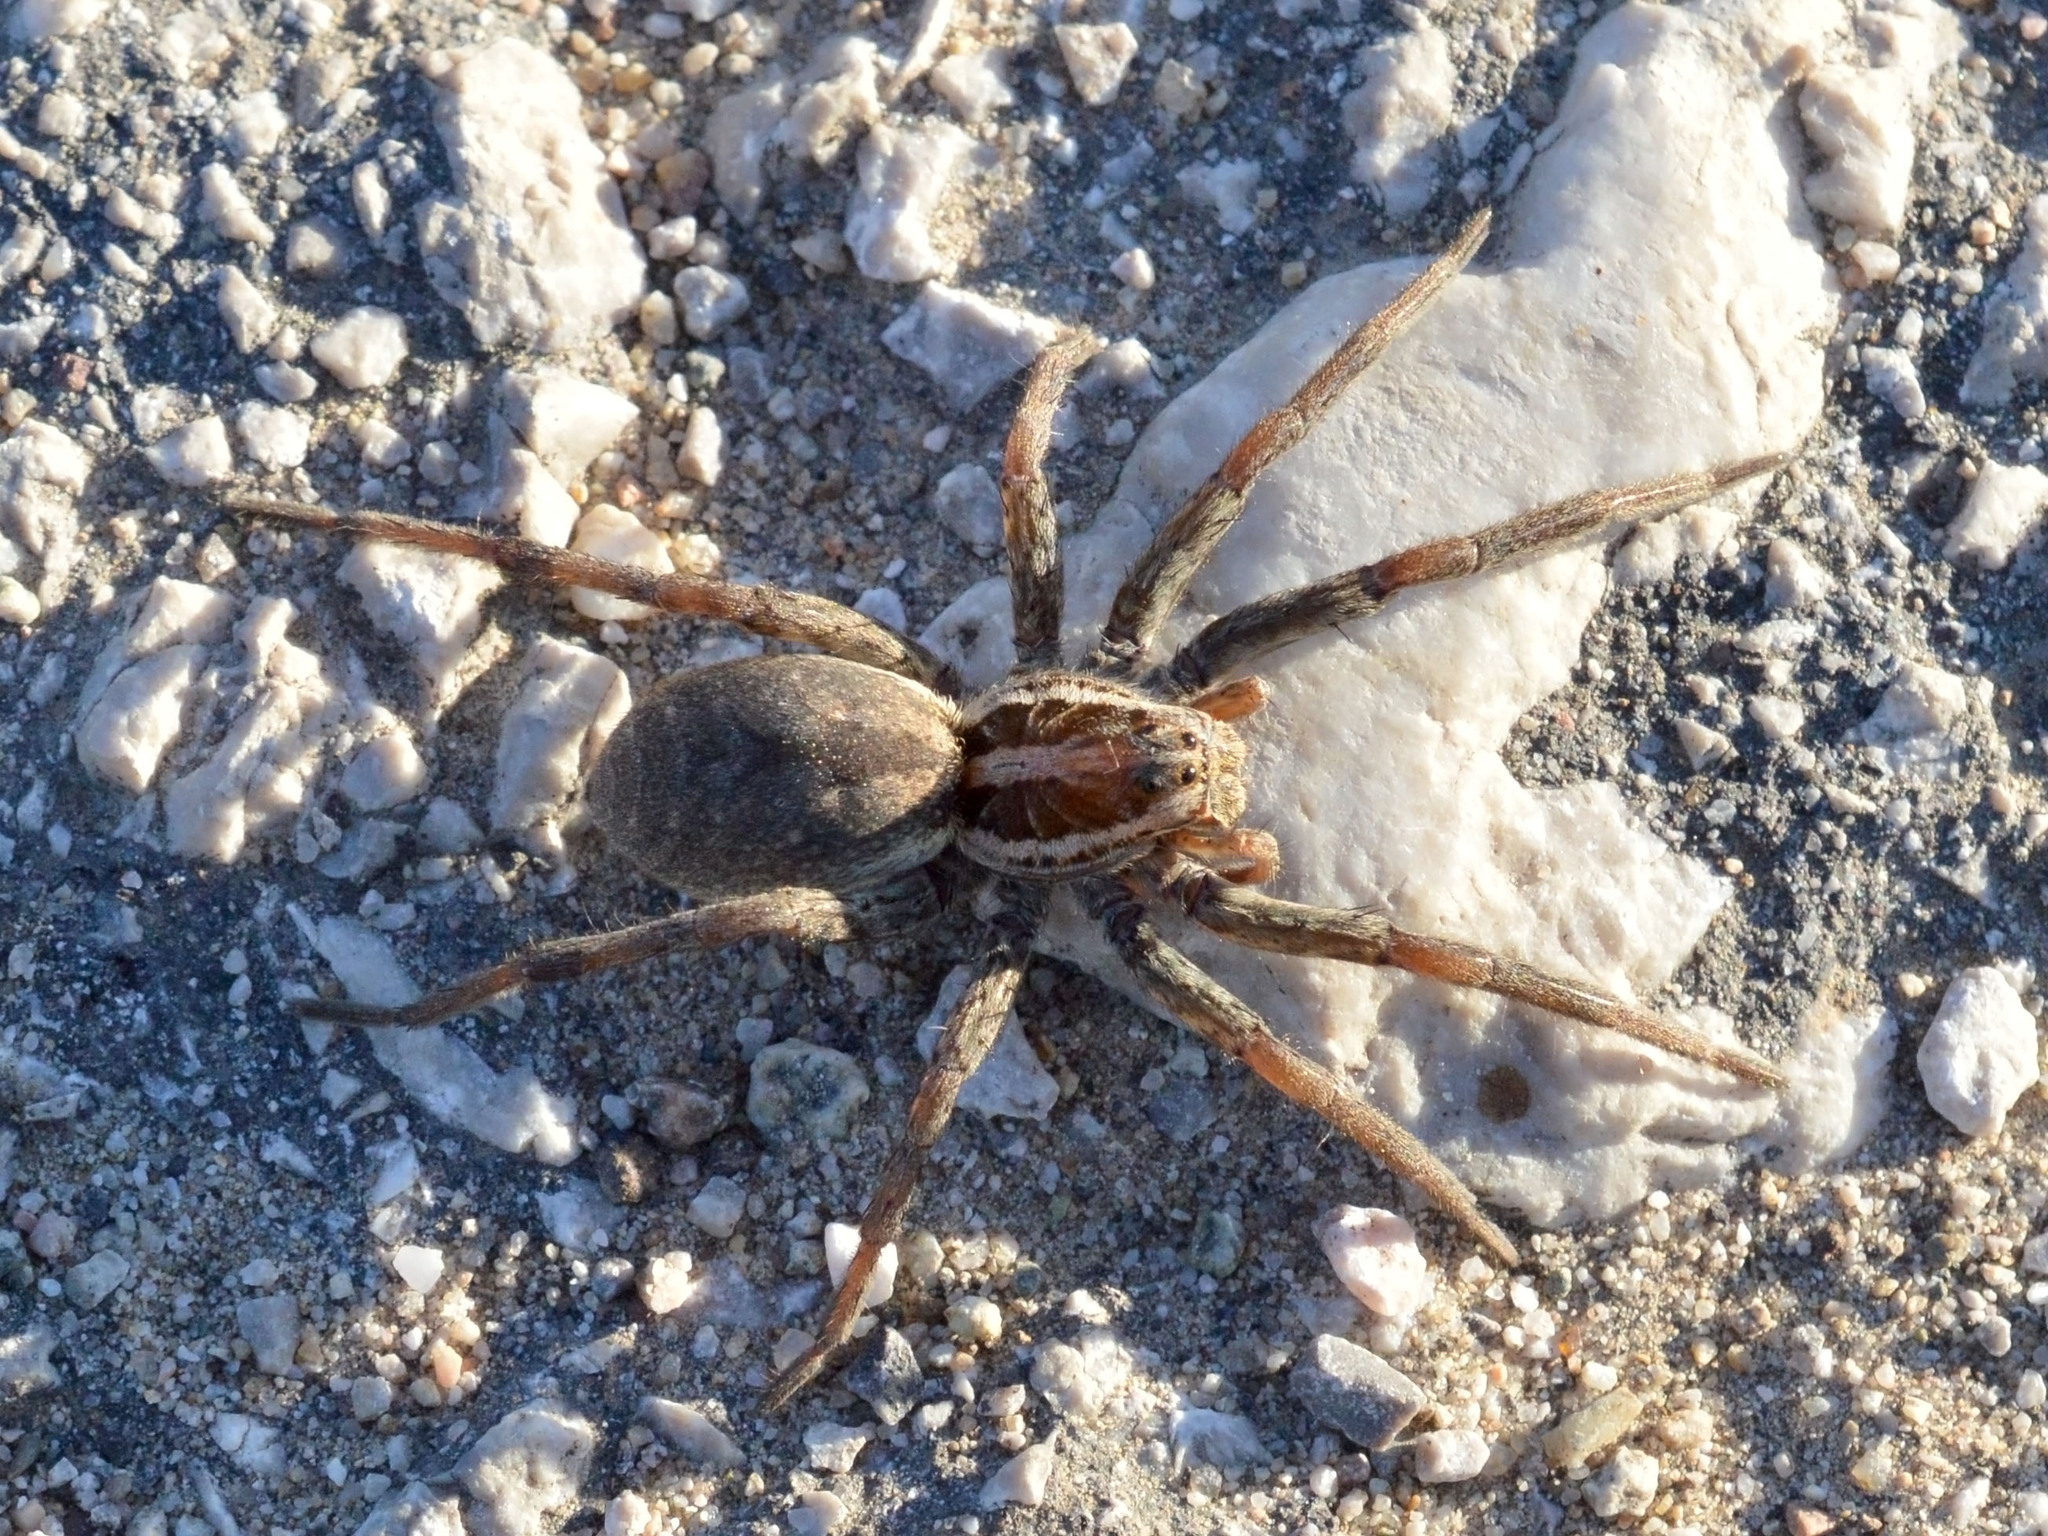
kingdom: Animalia
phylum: Arthropoda
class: Arachnida
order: Araneae
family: Lycosidae
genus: Hogna
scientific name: Hogna radiata
